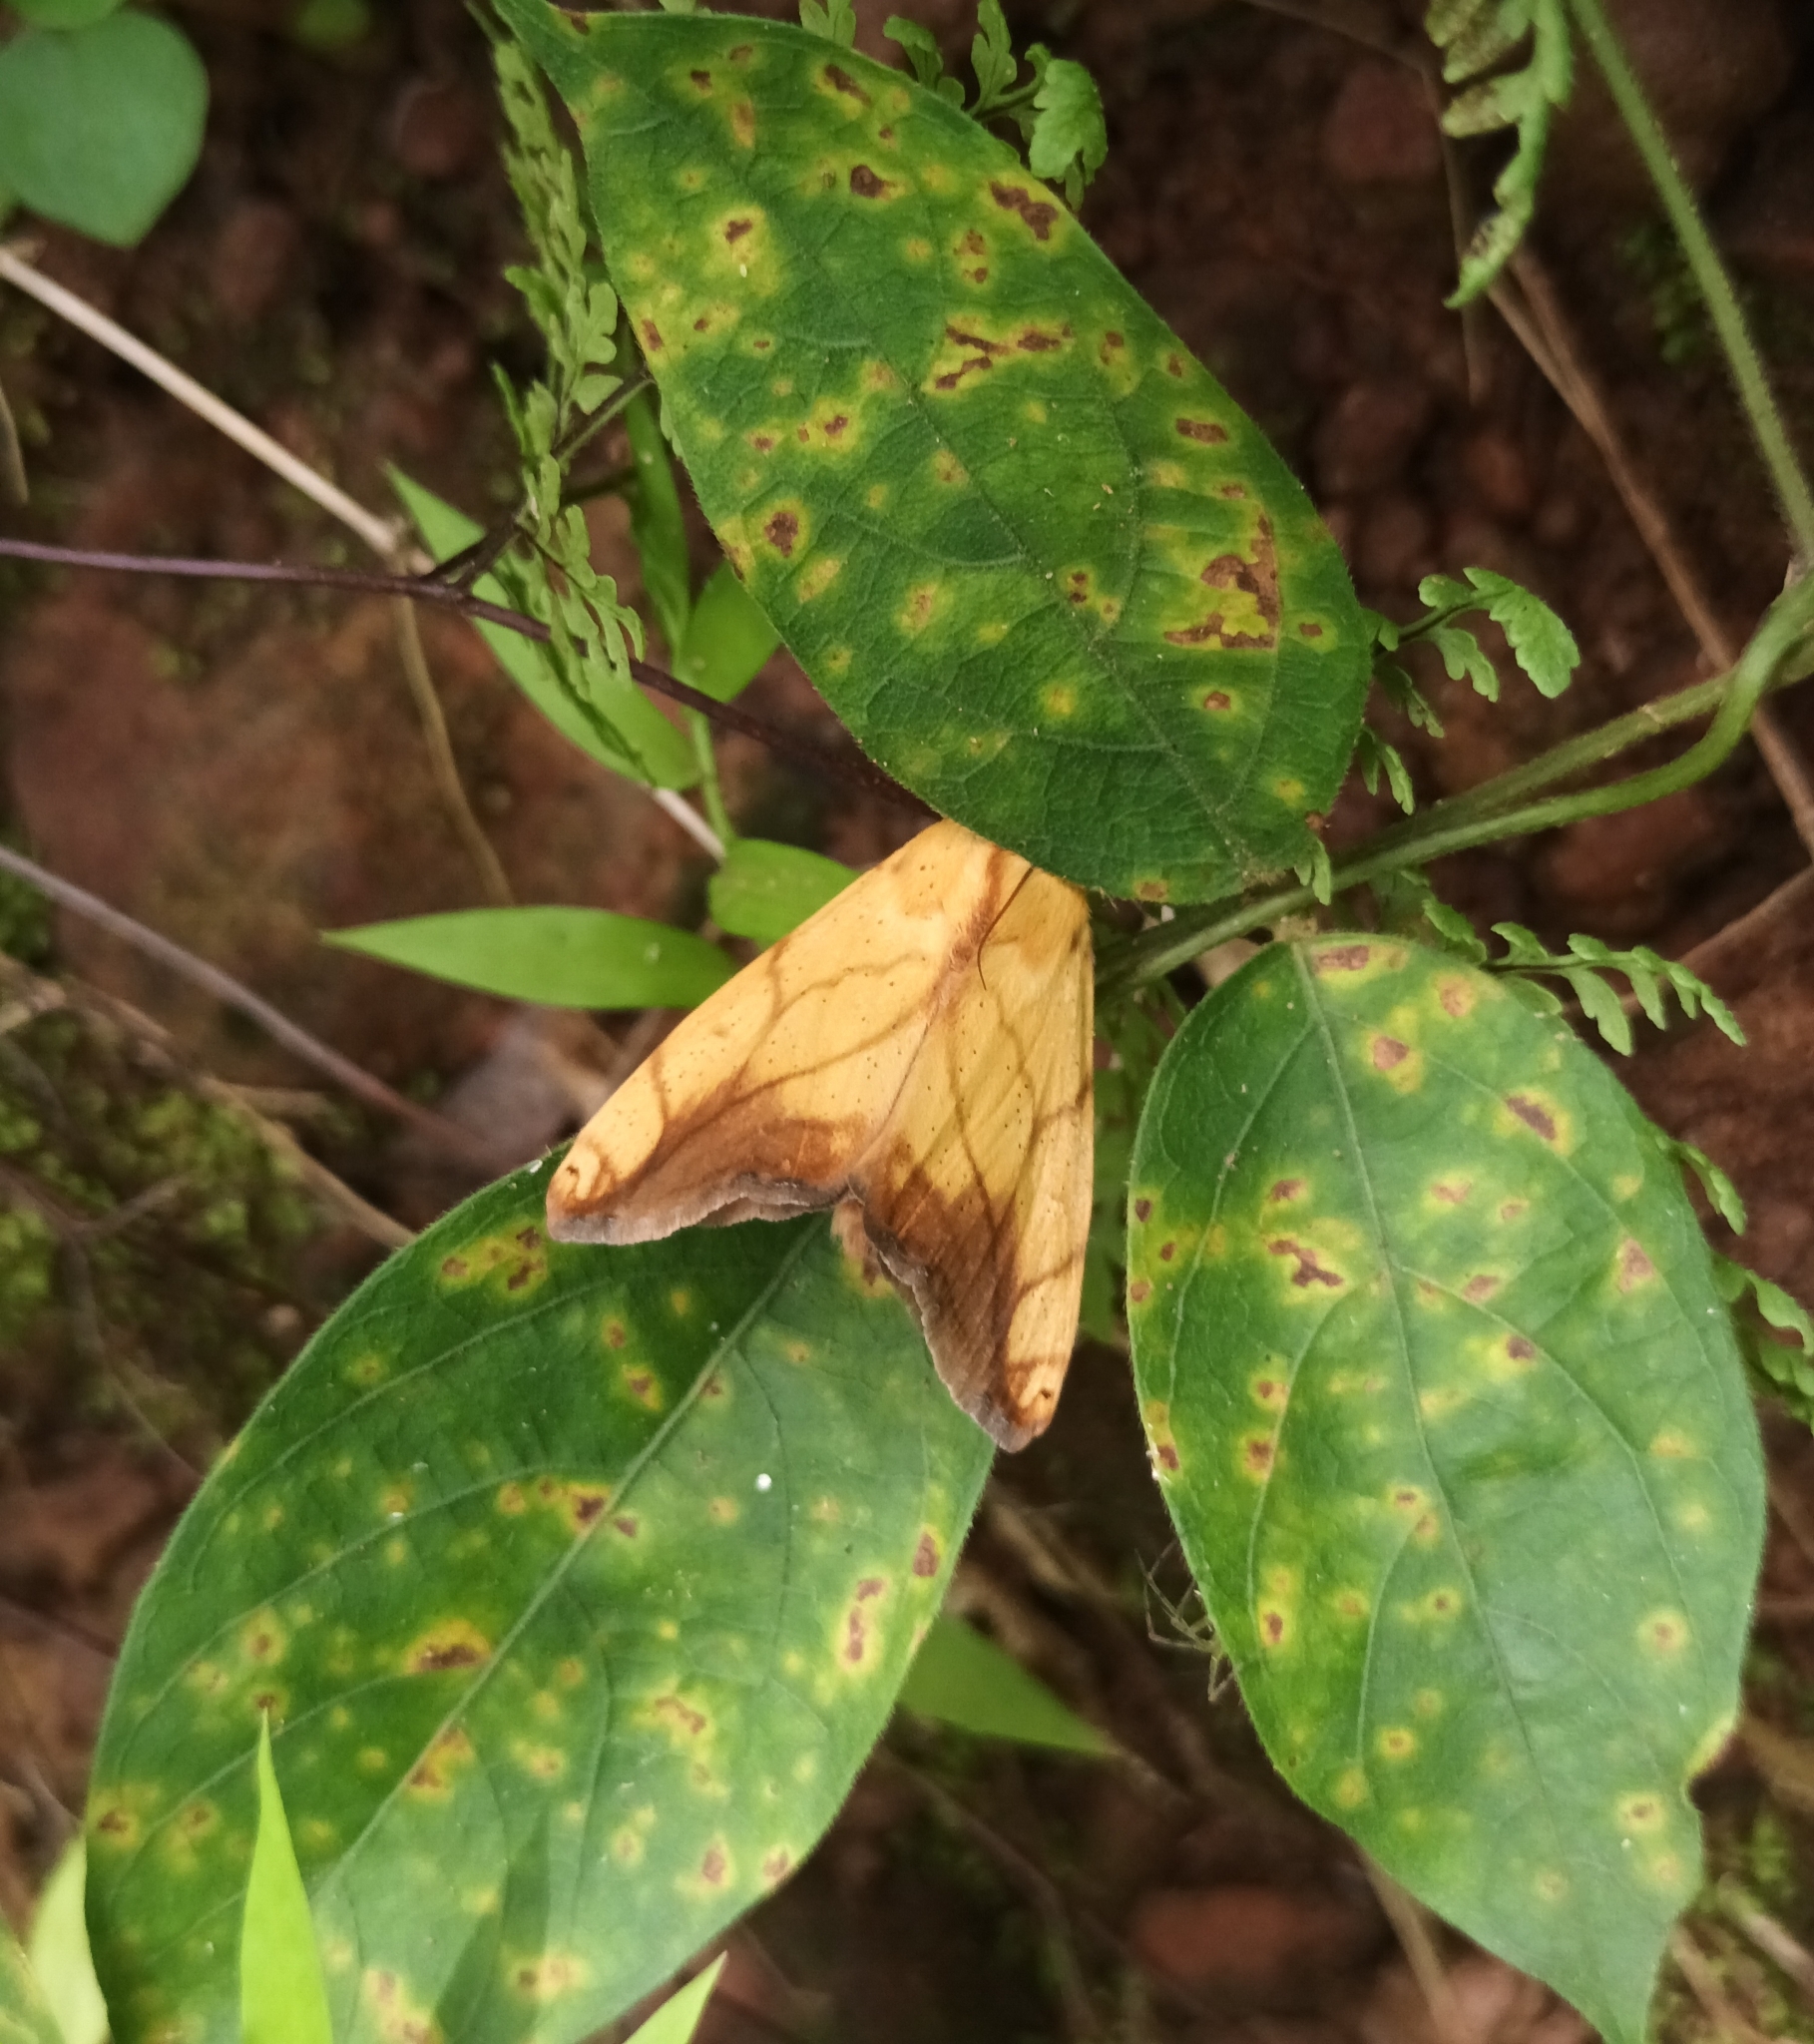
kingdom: Animalia
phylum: Arthropoda
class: Insecta
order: Lepidoptera
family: Nolidae
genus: Xanthodes
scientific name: Xanthodes transversa
